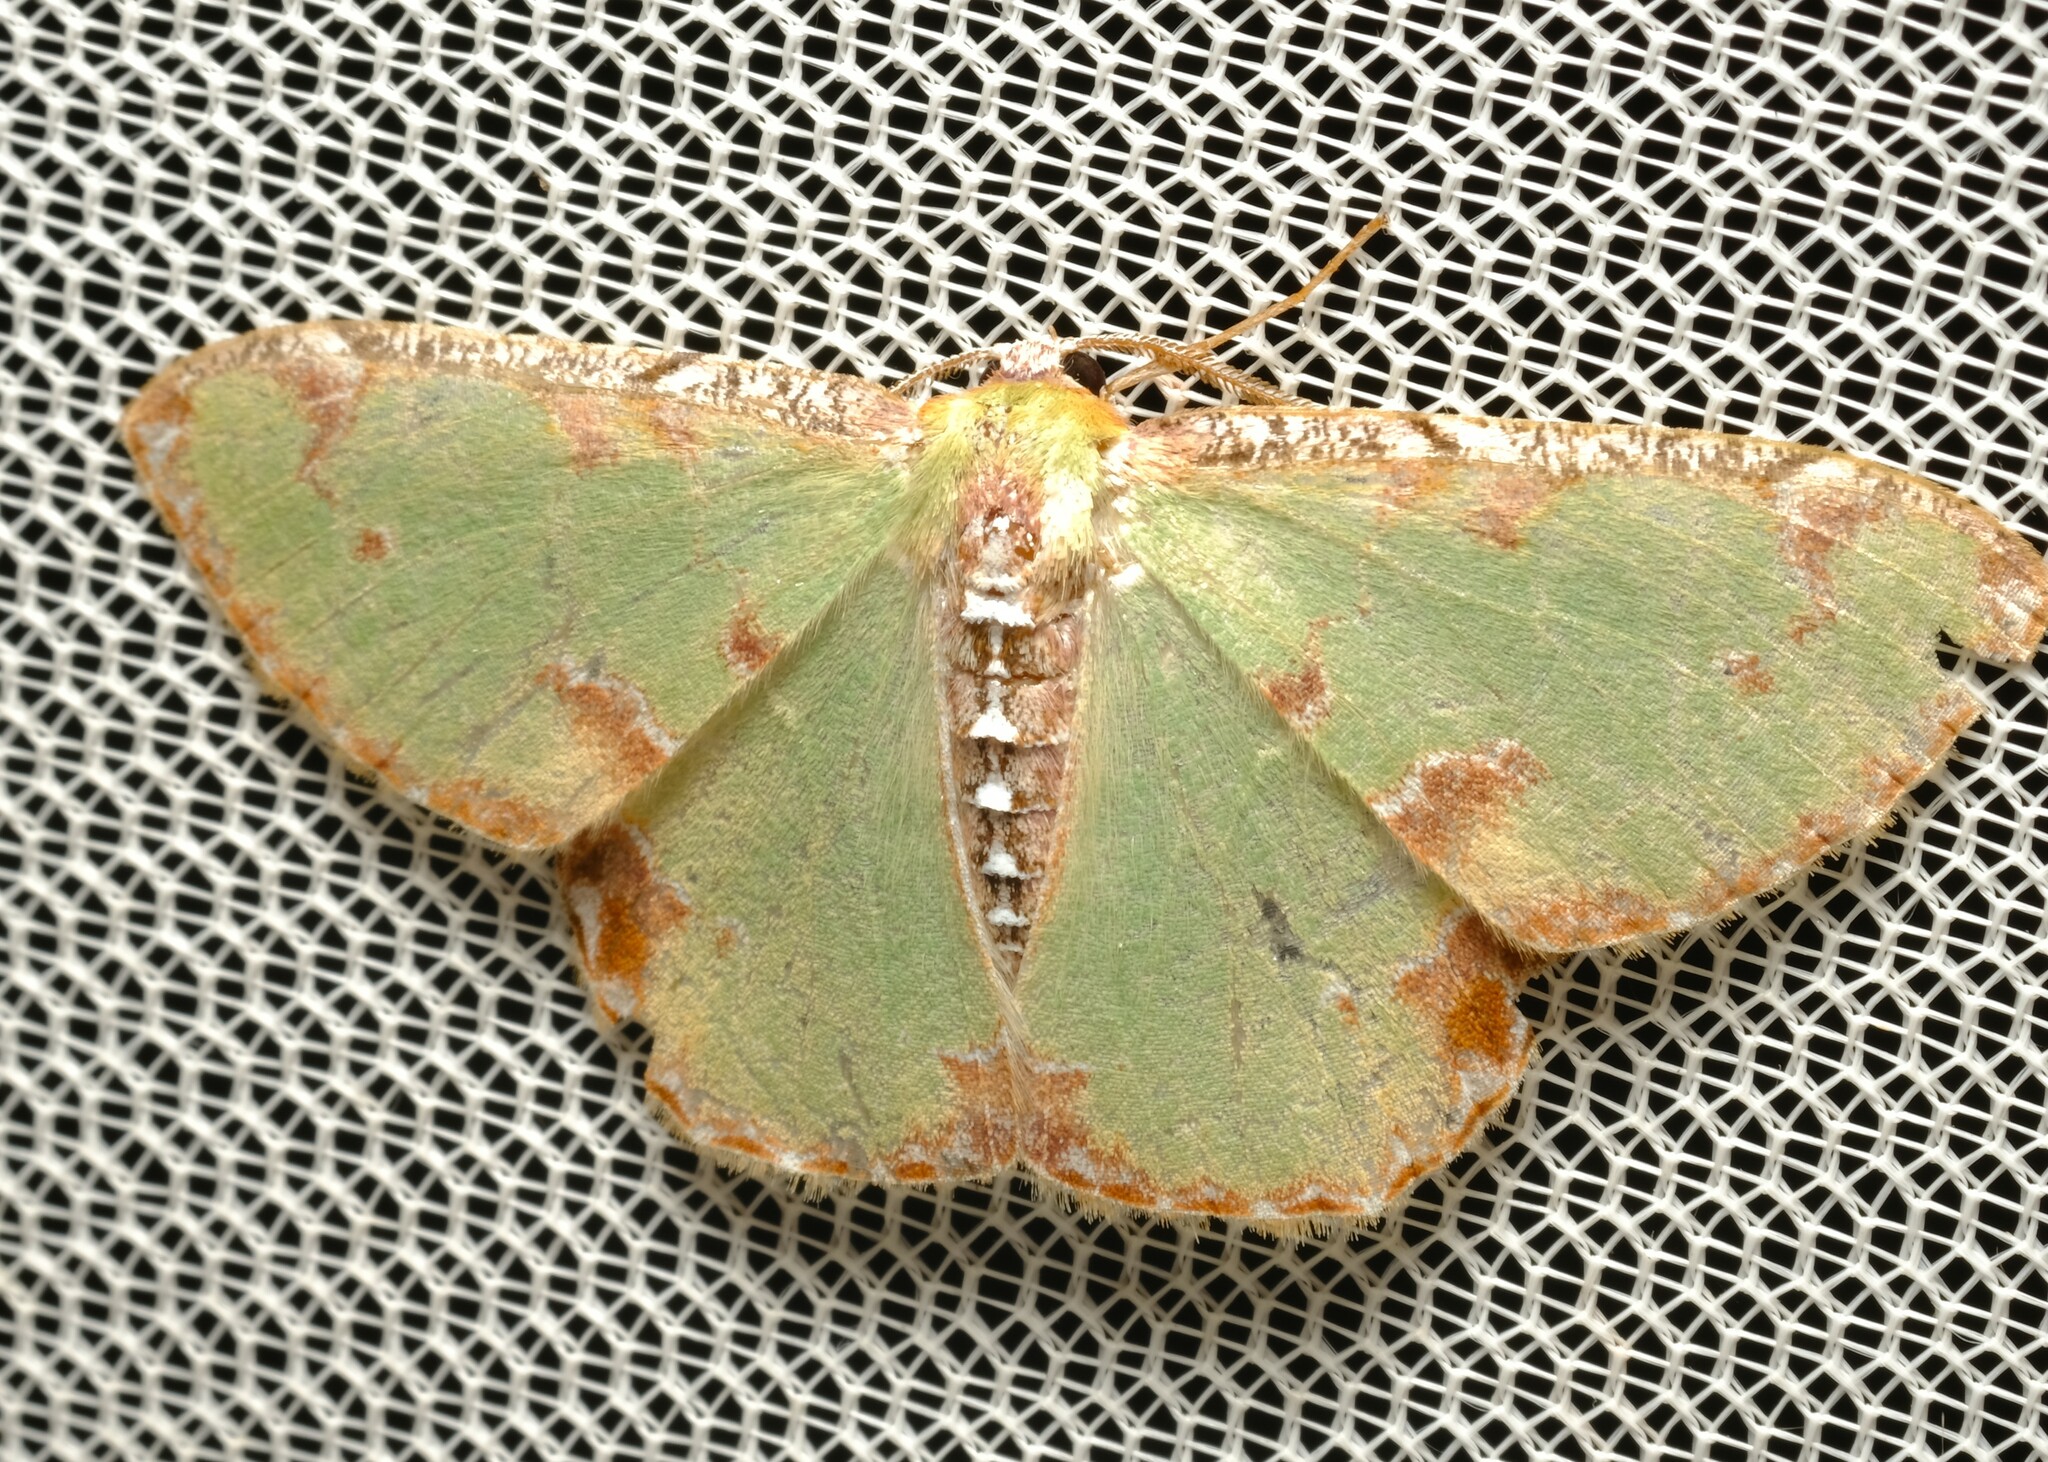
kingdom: Animalia
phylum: Arthropoda
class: Insecta
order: Lepidoptera
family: Geometridae
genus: Eucyclodes
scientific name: Eucyclodes buprestaria
